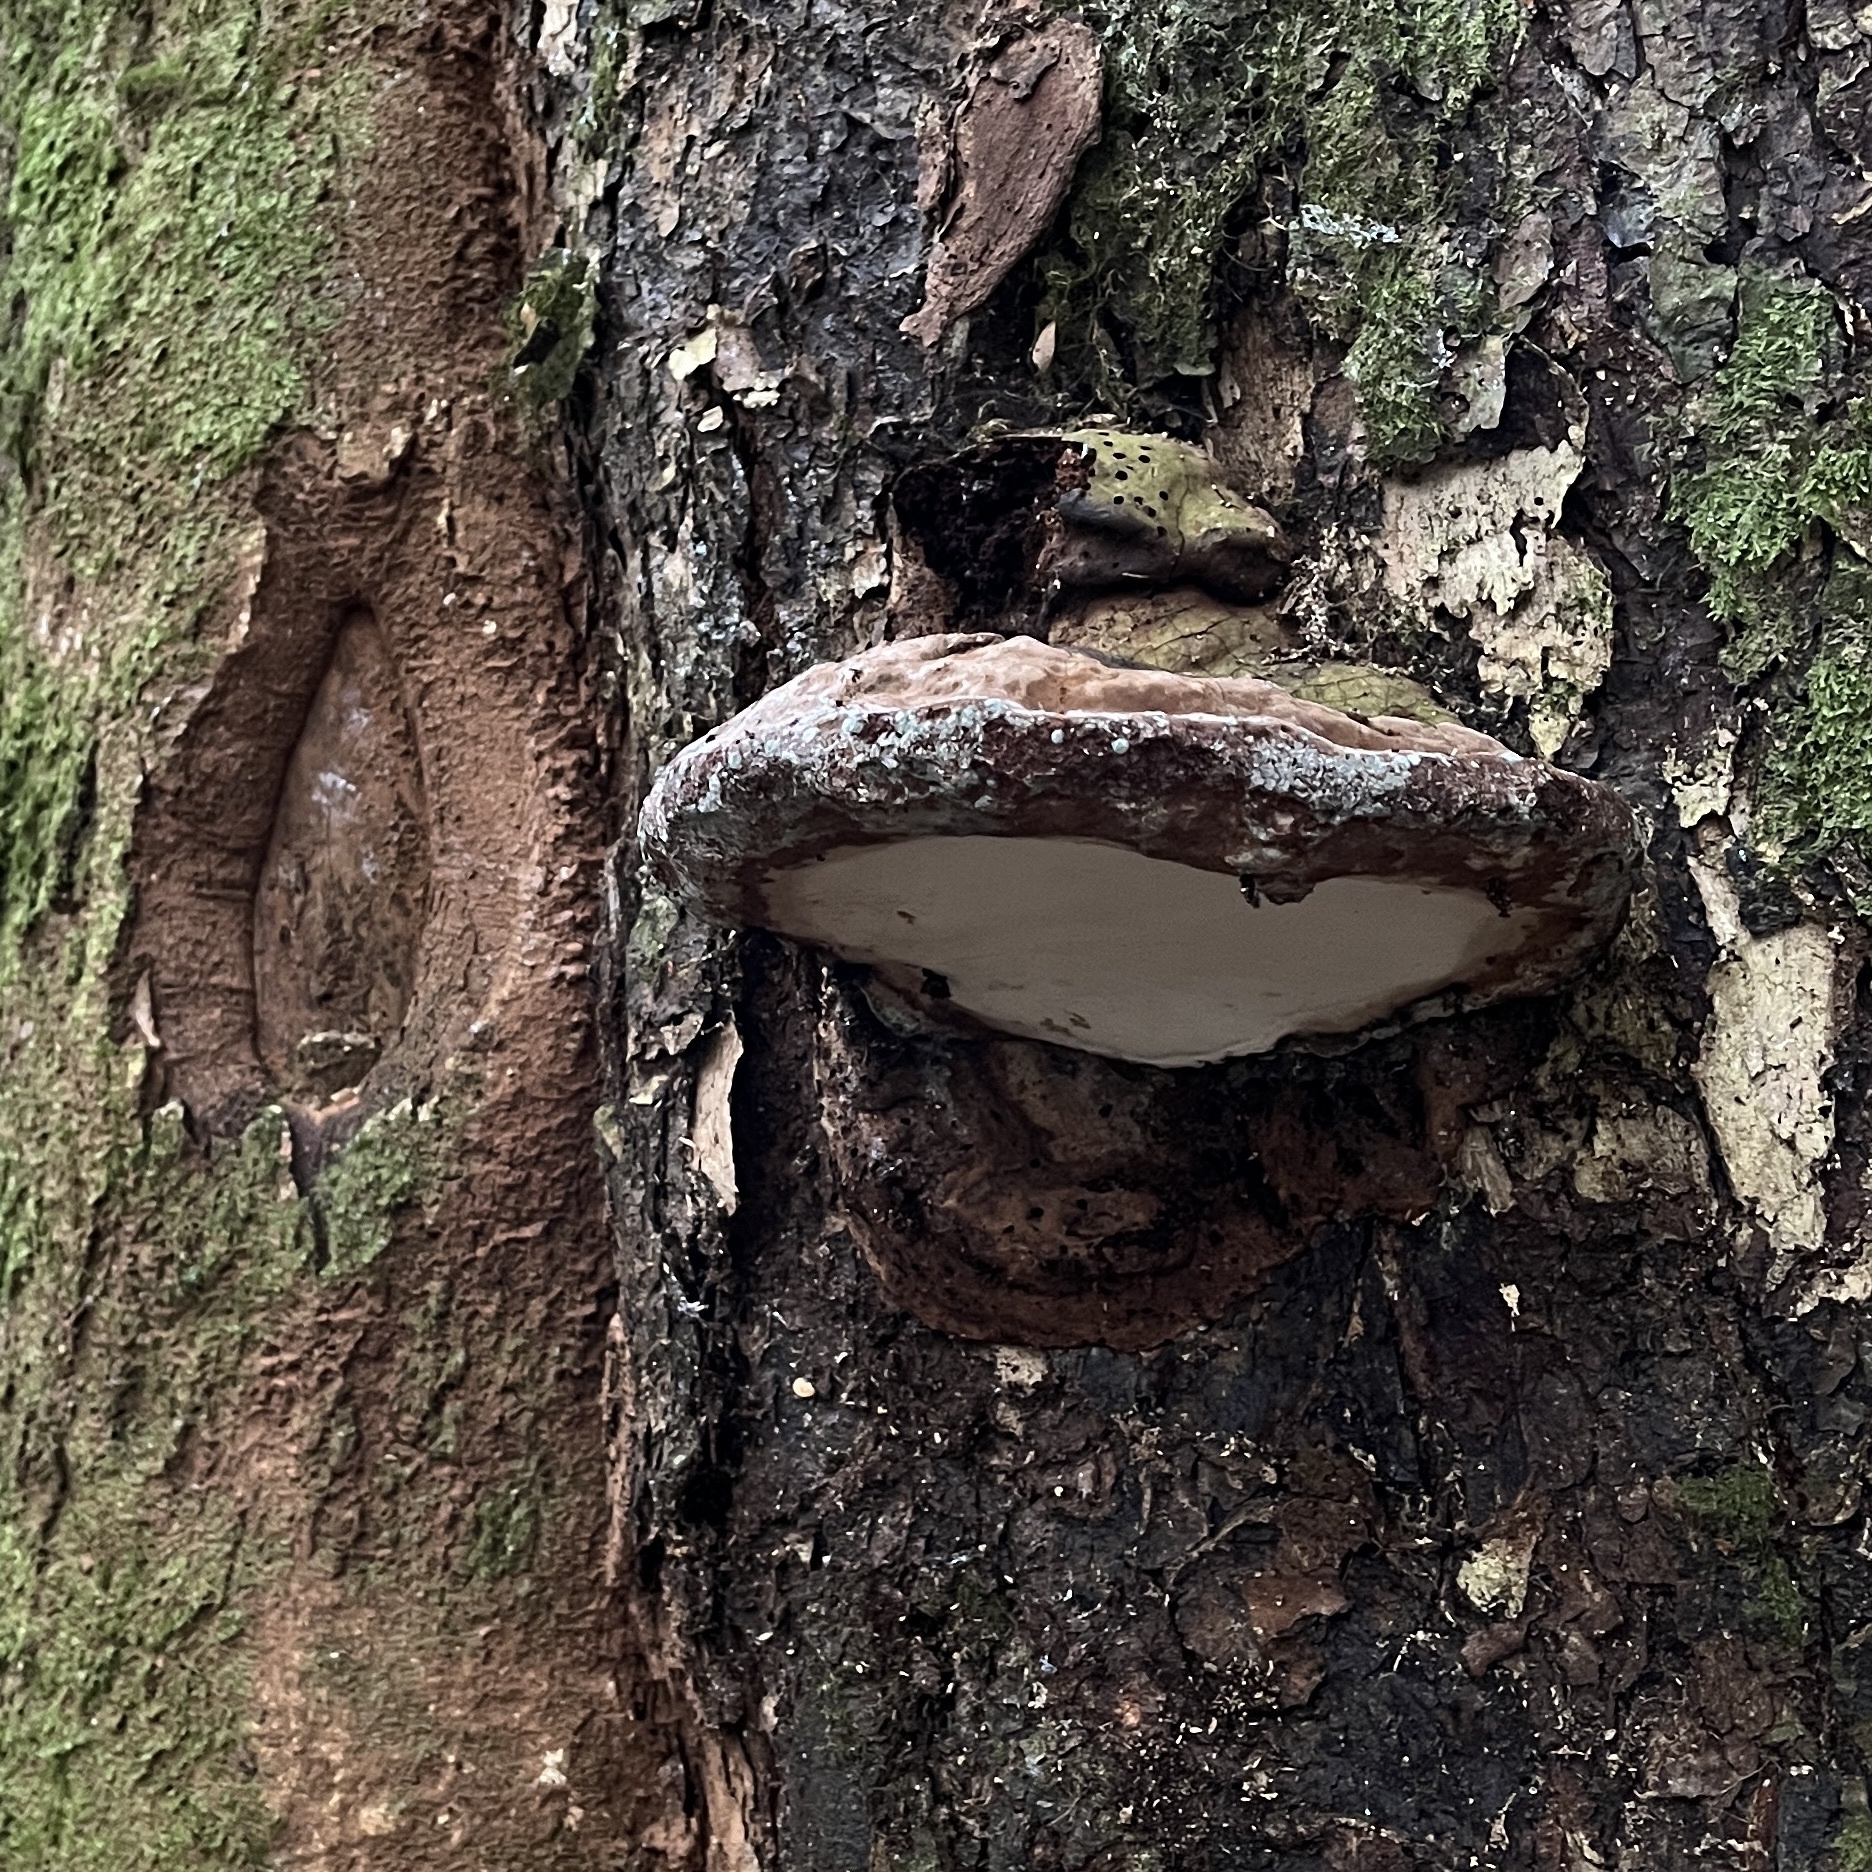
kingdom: Fungi
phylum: Basidiomycota
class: Agaricomycetes
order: Polyporales
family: Polyporaceae
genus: Ganoderma
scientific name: Ganoderma australe
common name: Southern bracket
